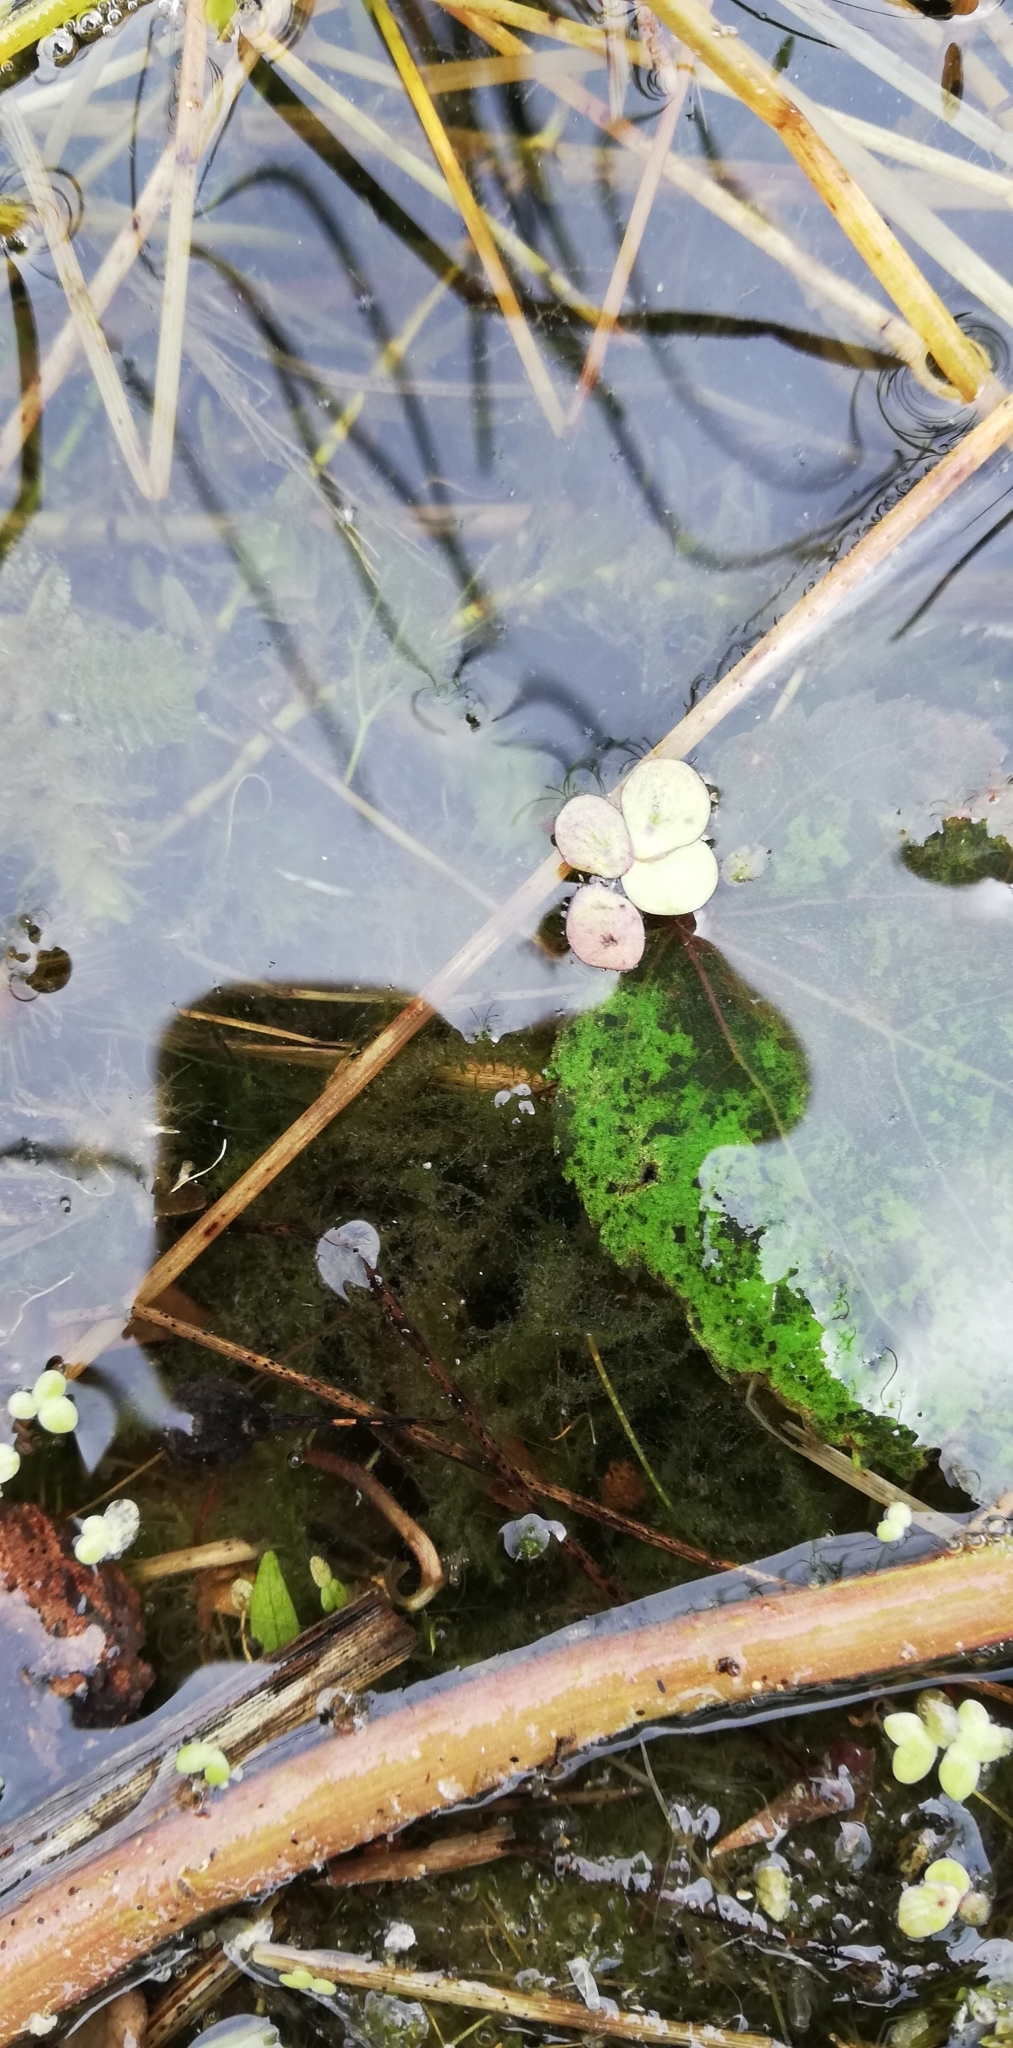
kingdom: Plantae
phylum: Tracheophyta
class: Liliopsida
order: Alismatales
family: Araceae
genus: Spirodela
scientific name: Spirodela polyrhiza
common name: Great duckweed
